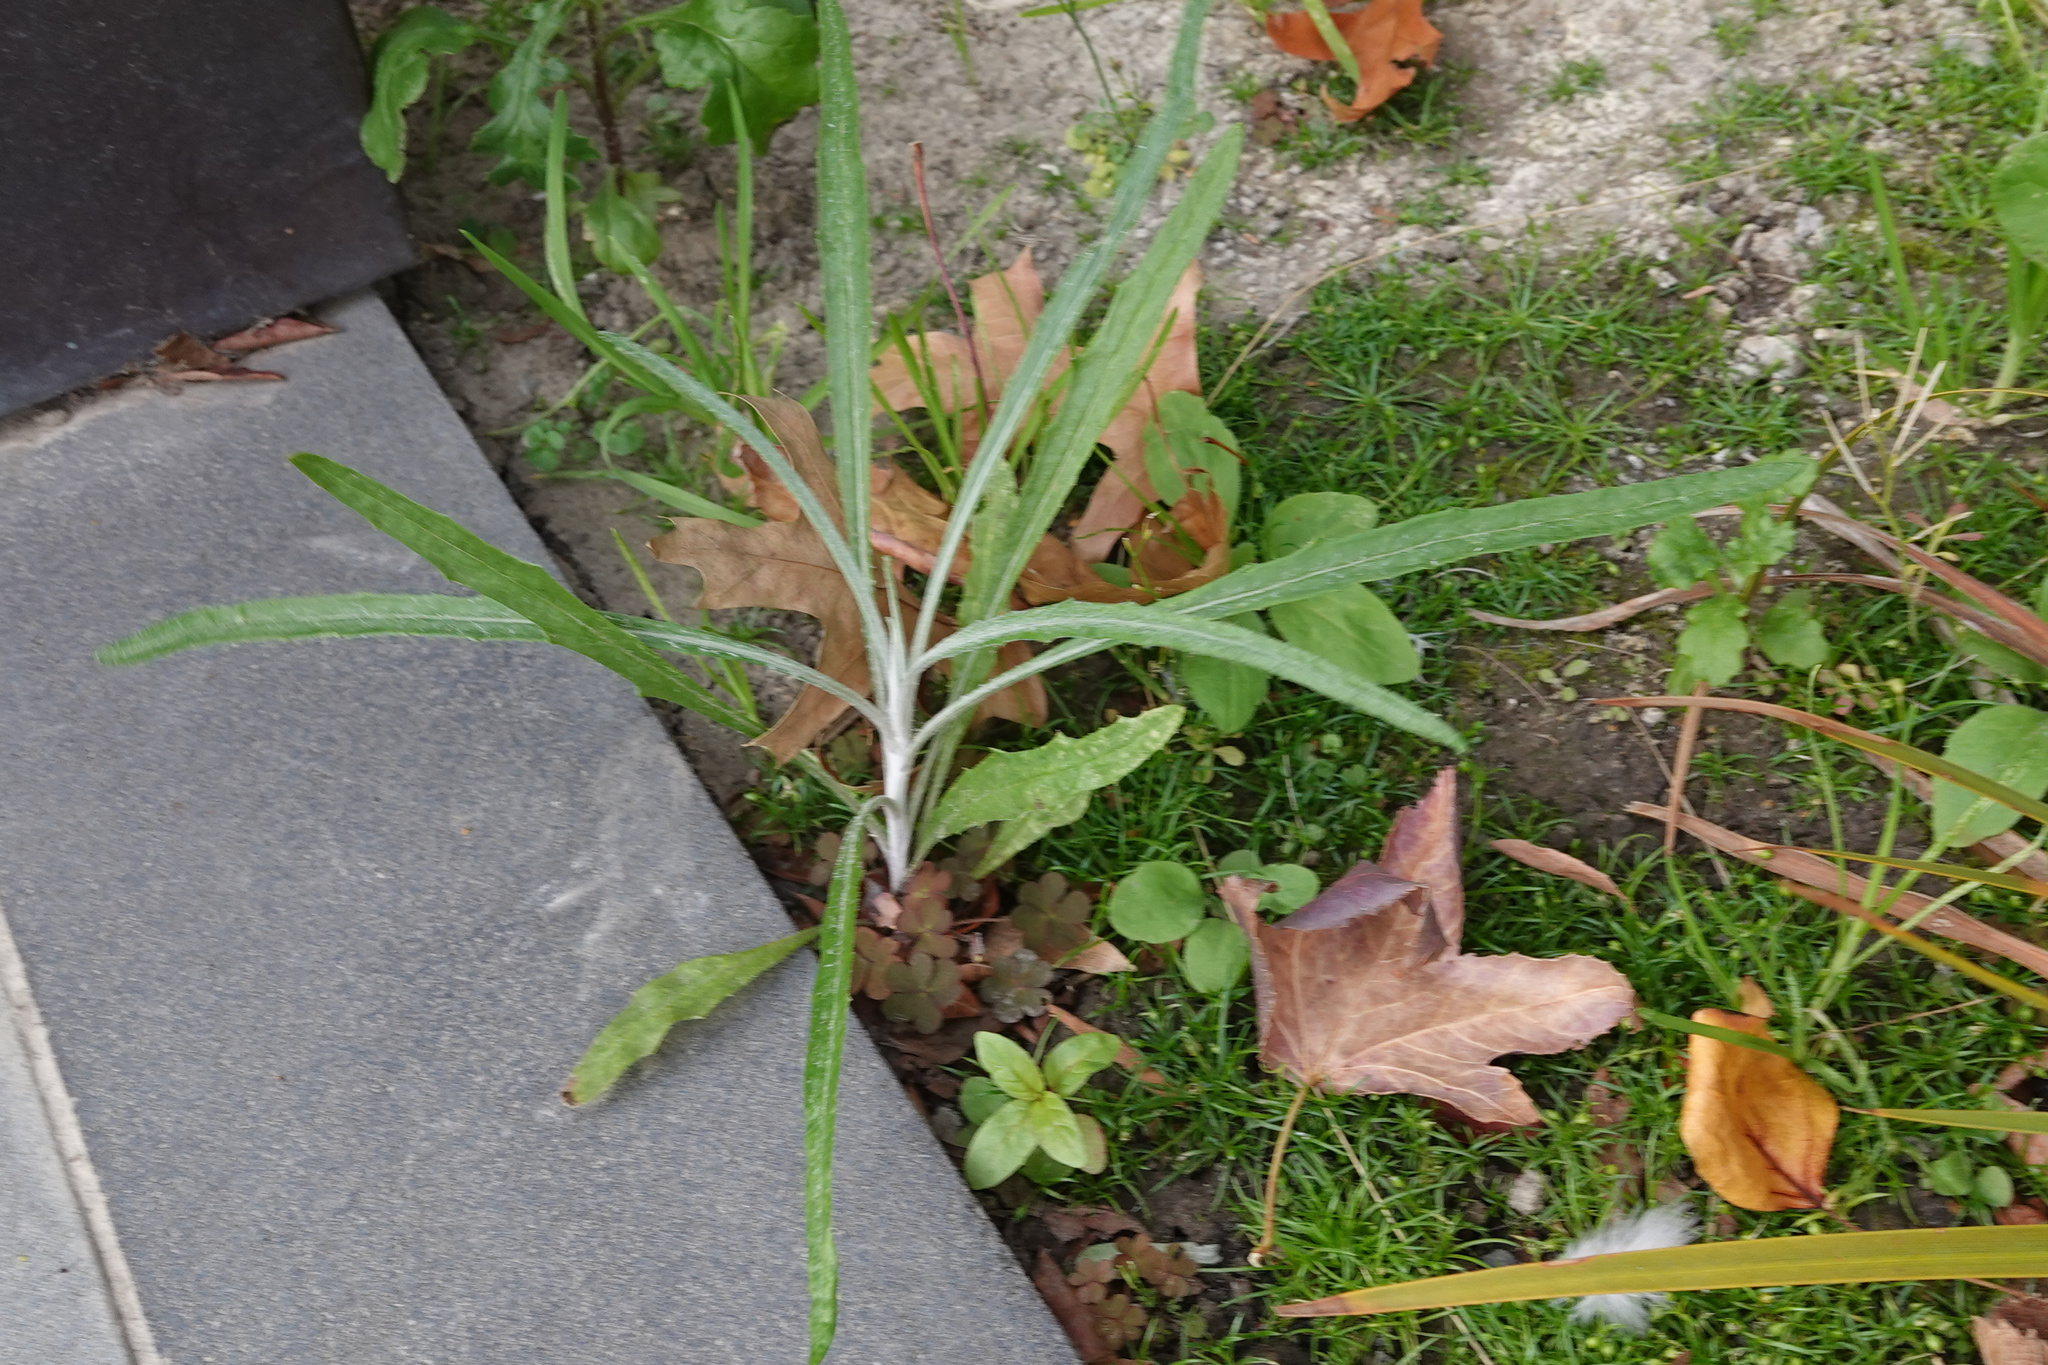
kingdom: Plantae
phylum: Tracheophyta
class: Magnoliopsida
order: Asterales
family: Asteraceae
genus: Senecio
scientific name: Senecio quadridentatus
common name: Cotton fireweed
